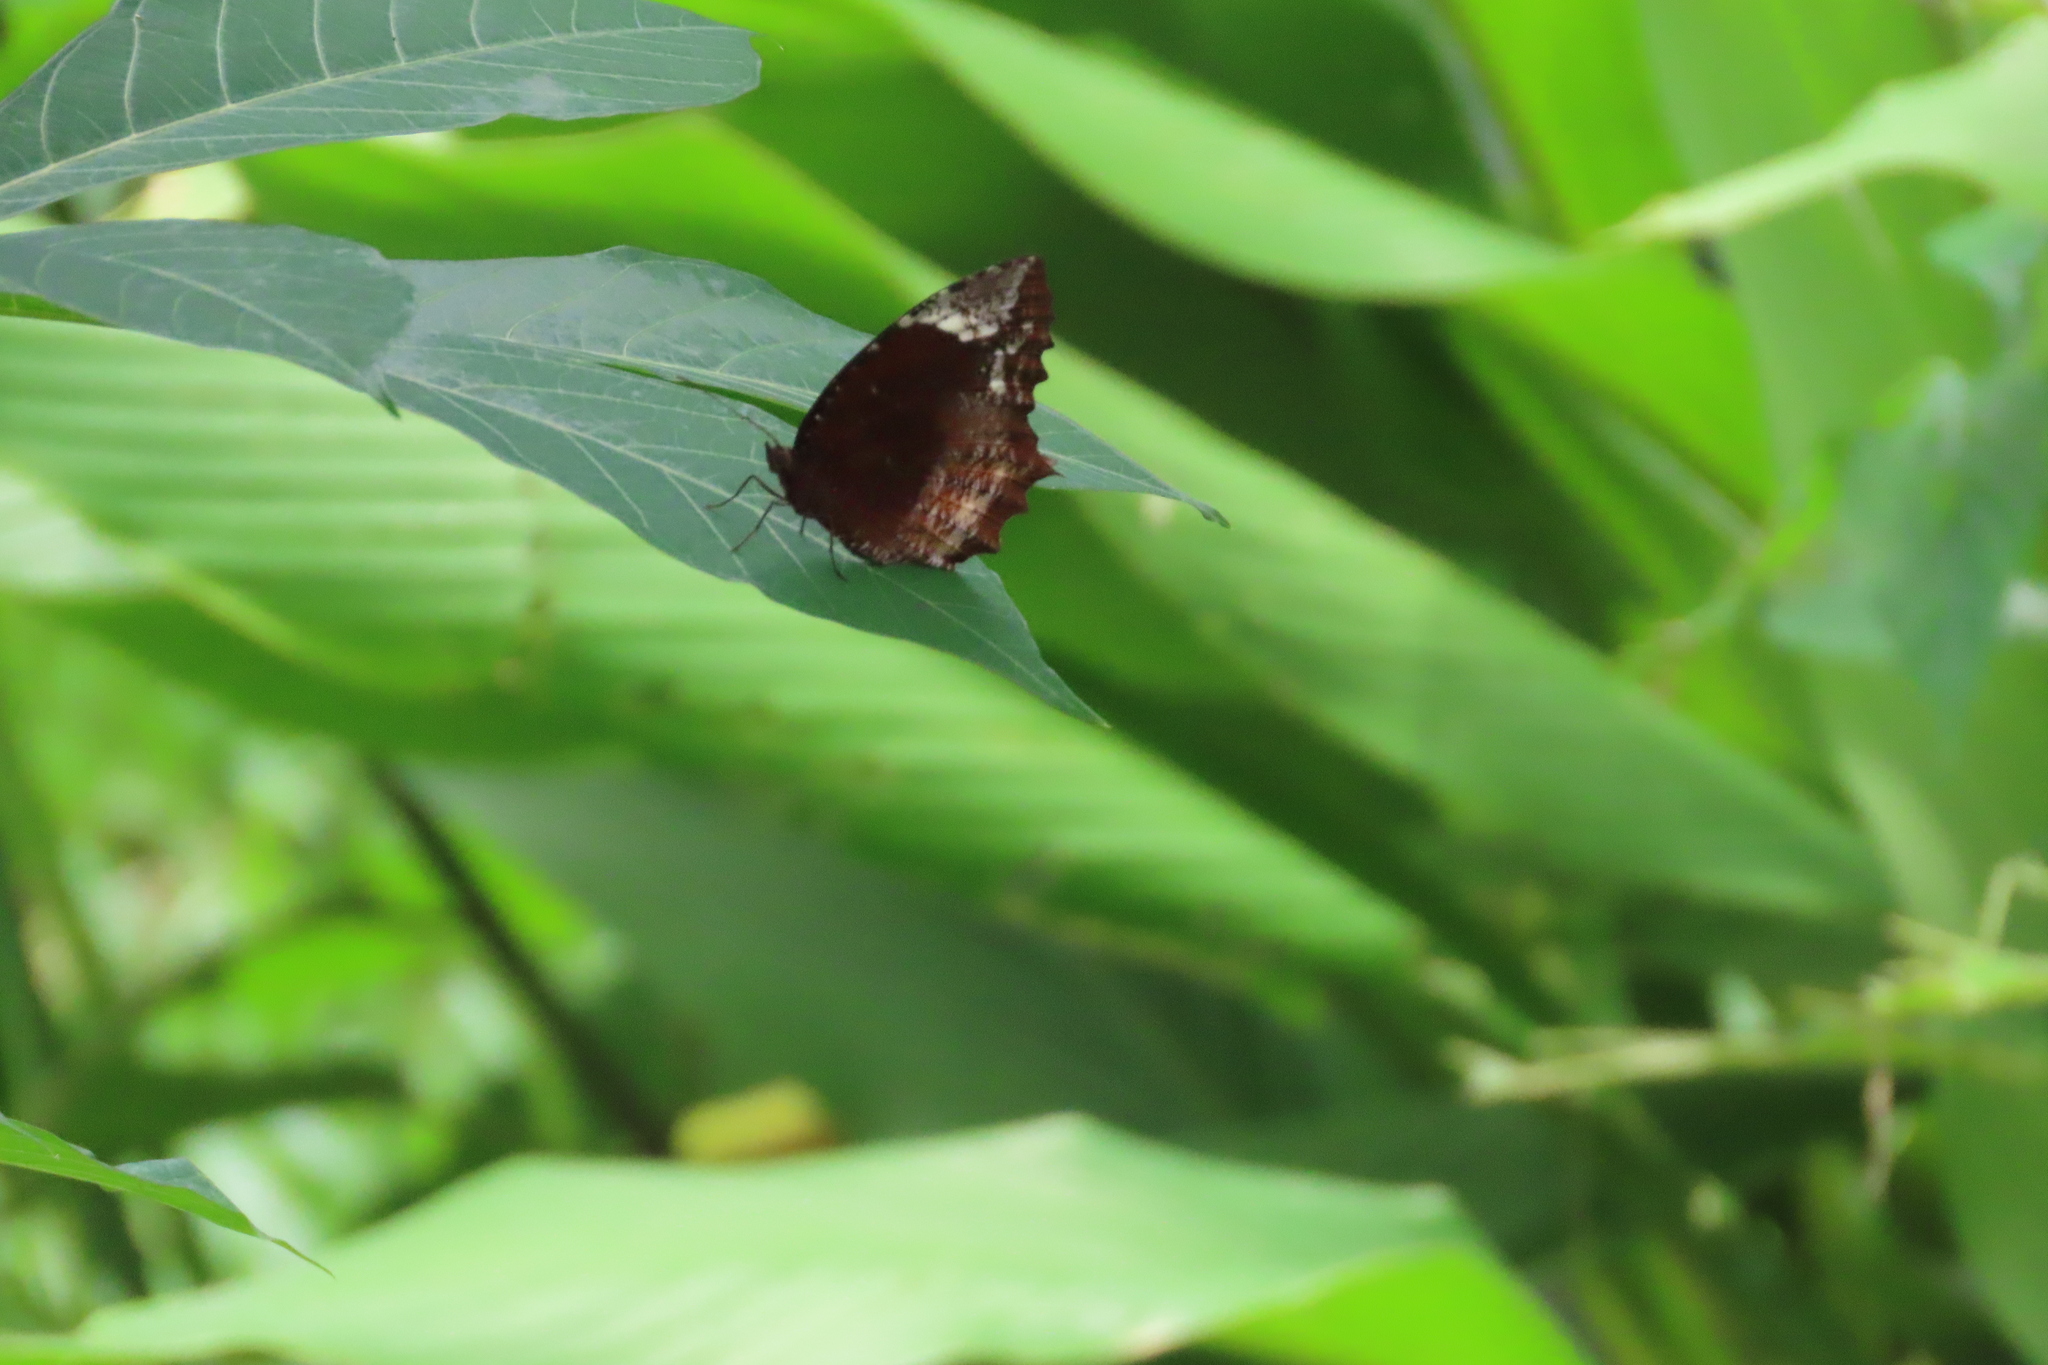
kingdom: Animalia
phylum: Arthropoda
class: Insecta
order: Lepidoptera
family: Nymphalidae
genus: Elymnias
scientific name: Elymnias caudata
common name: Tailed palmfly
